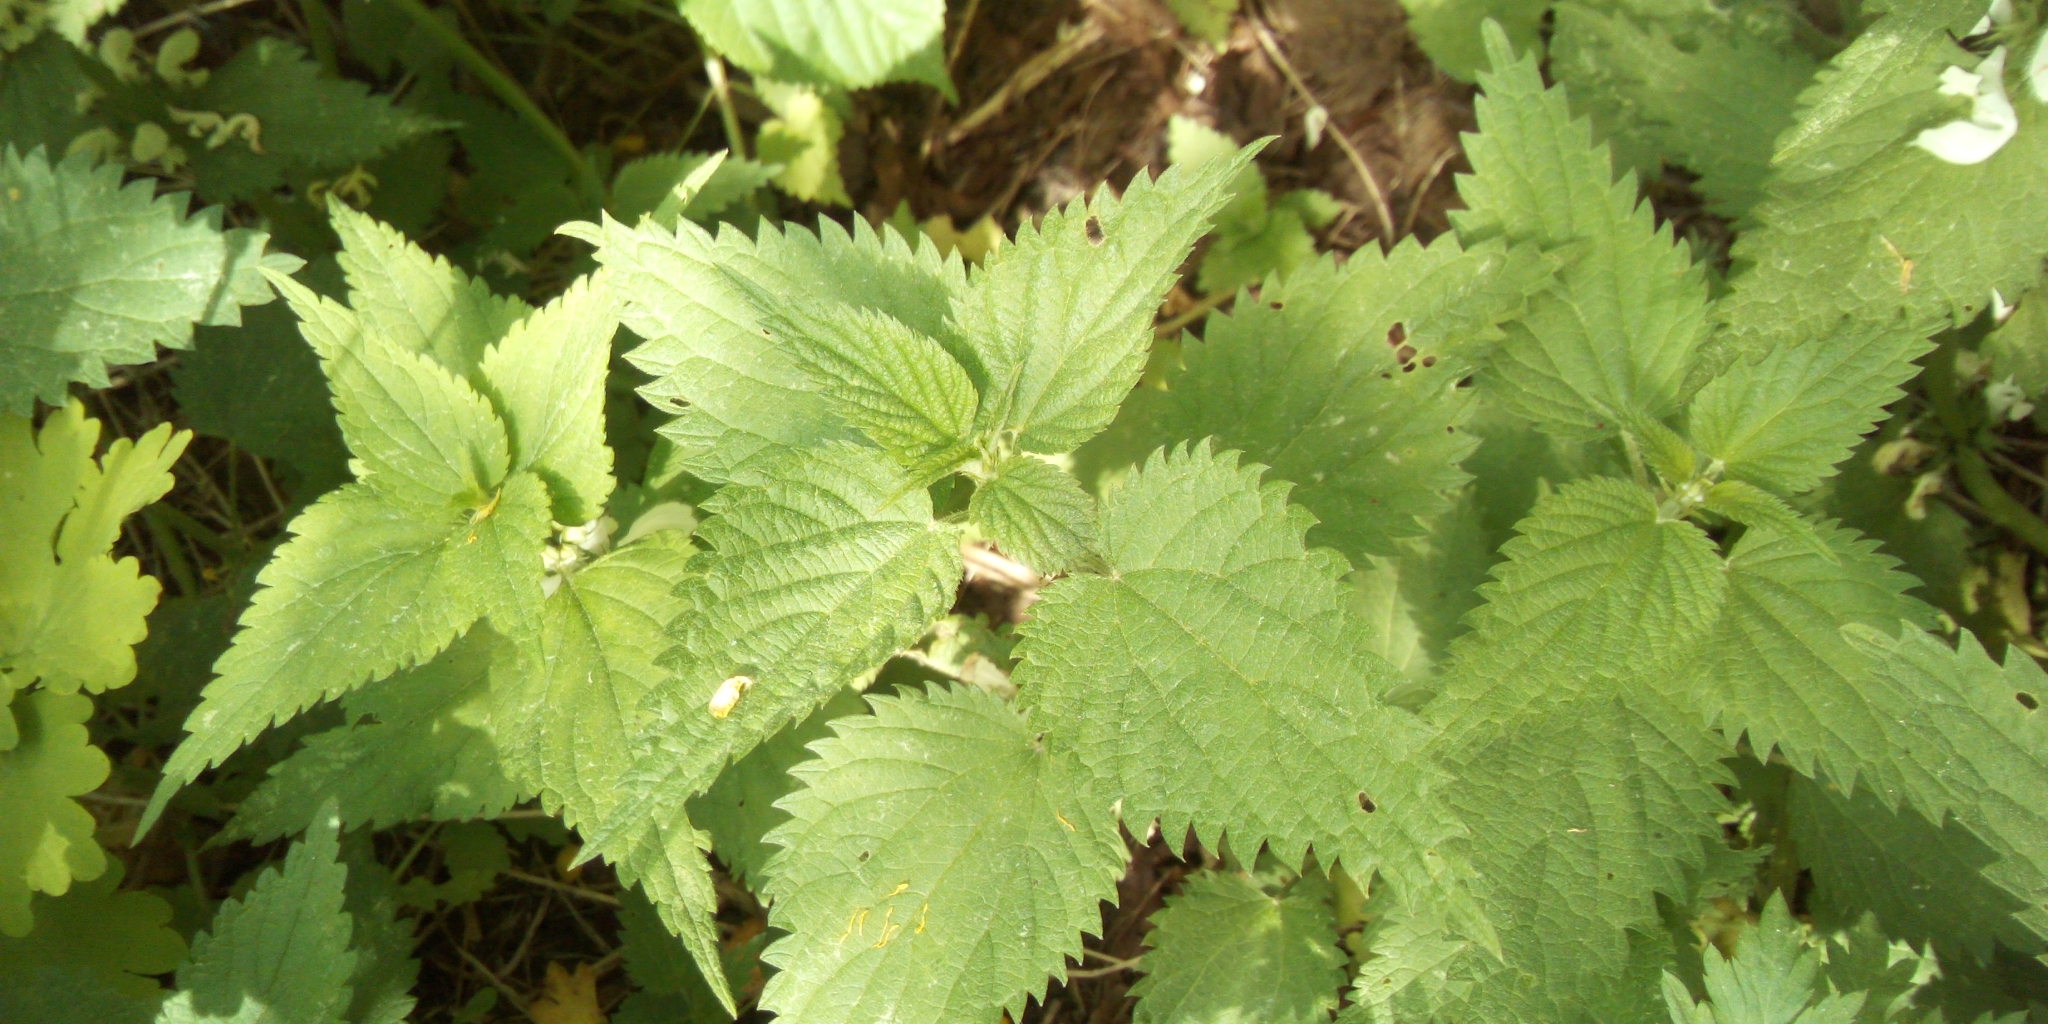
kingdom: Plantae
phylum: Tracheophyta
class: Magnoliopsida
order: Rosales
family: Urticaceae
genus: Urtica
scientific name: Urtica dioica
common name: Common nettle
